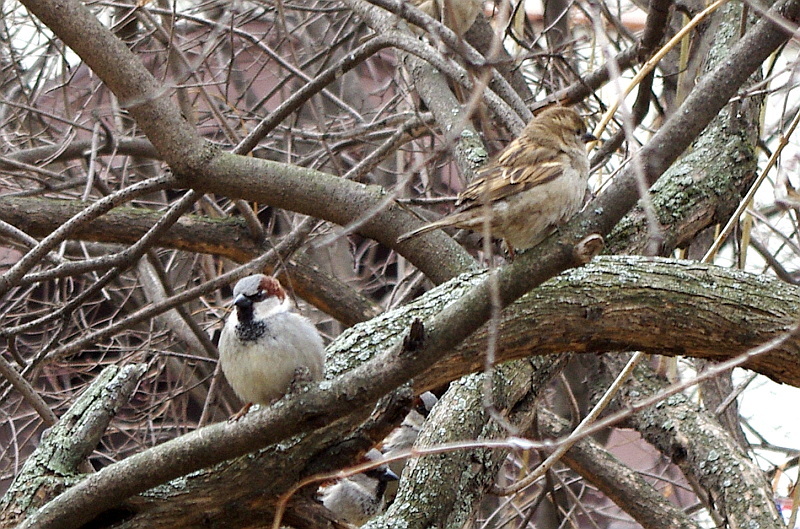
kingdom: Animalia
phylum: Chordata
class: Aves
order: Passeriformes
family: Passeridae
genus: Passer
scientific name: Passer domesticus
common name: House sparrow
